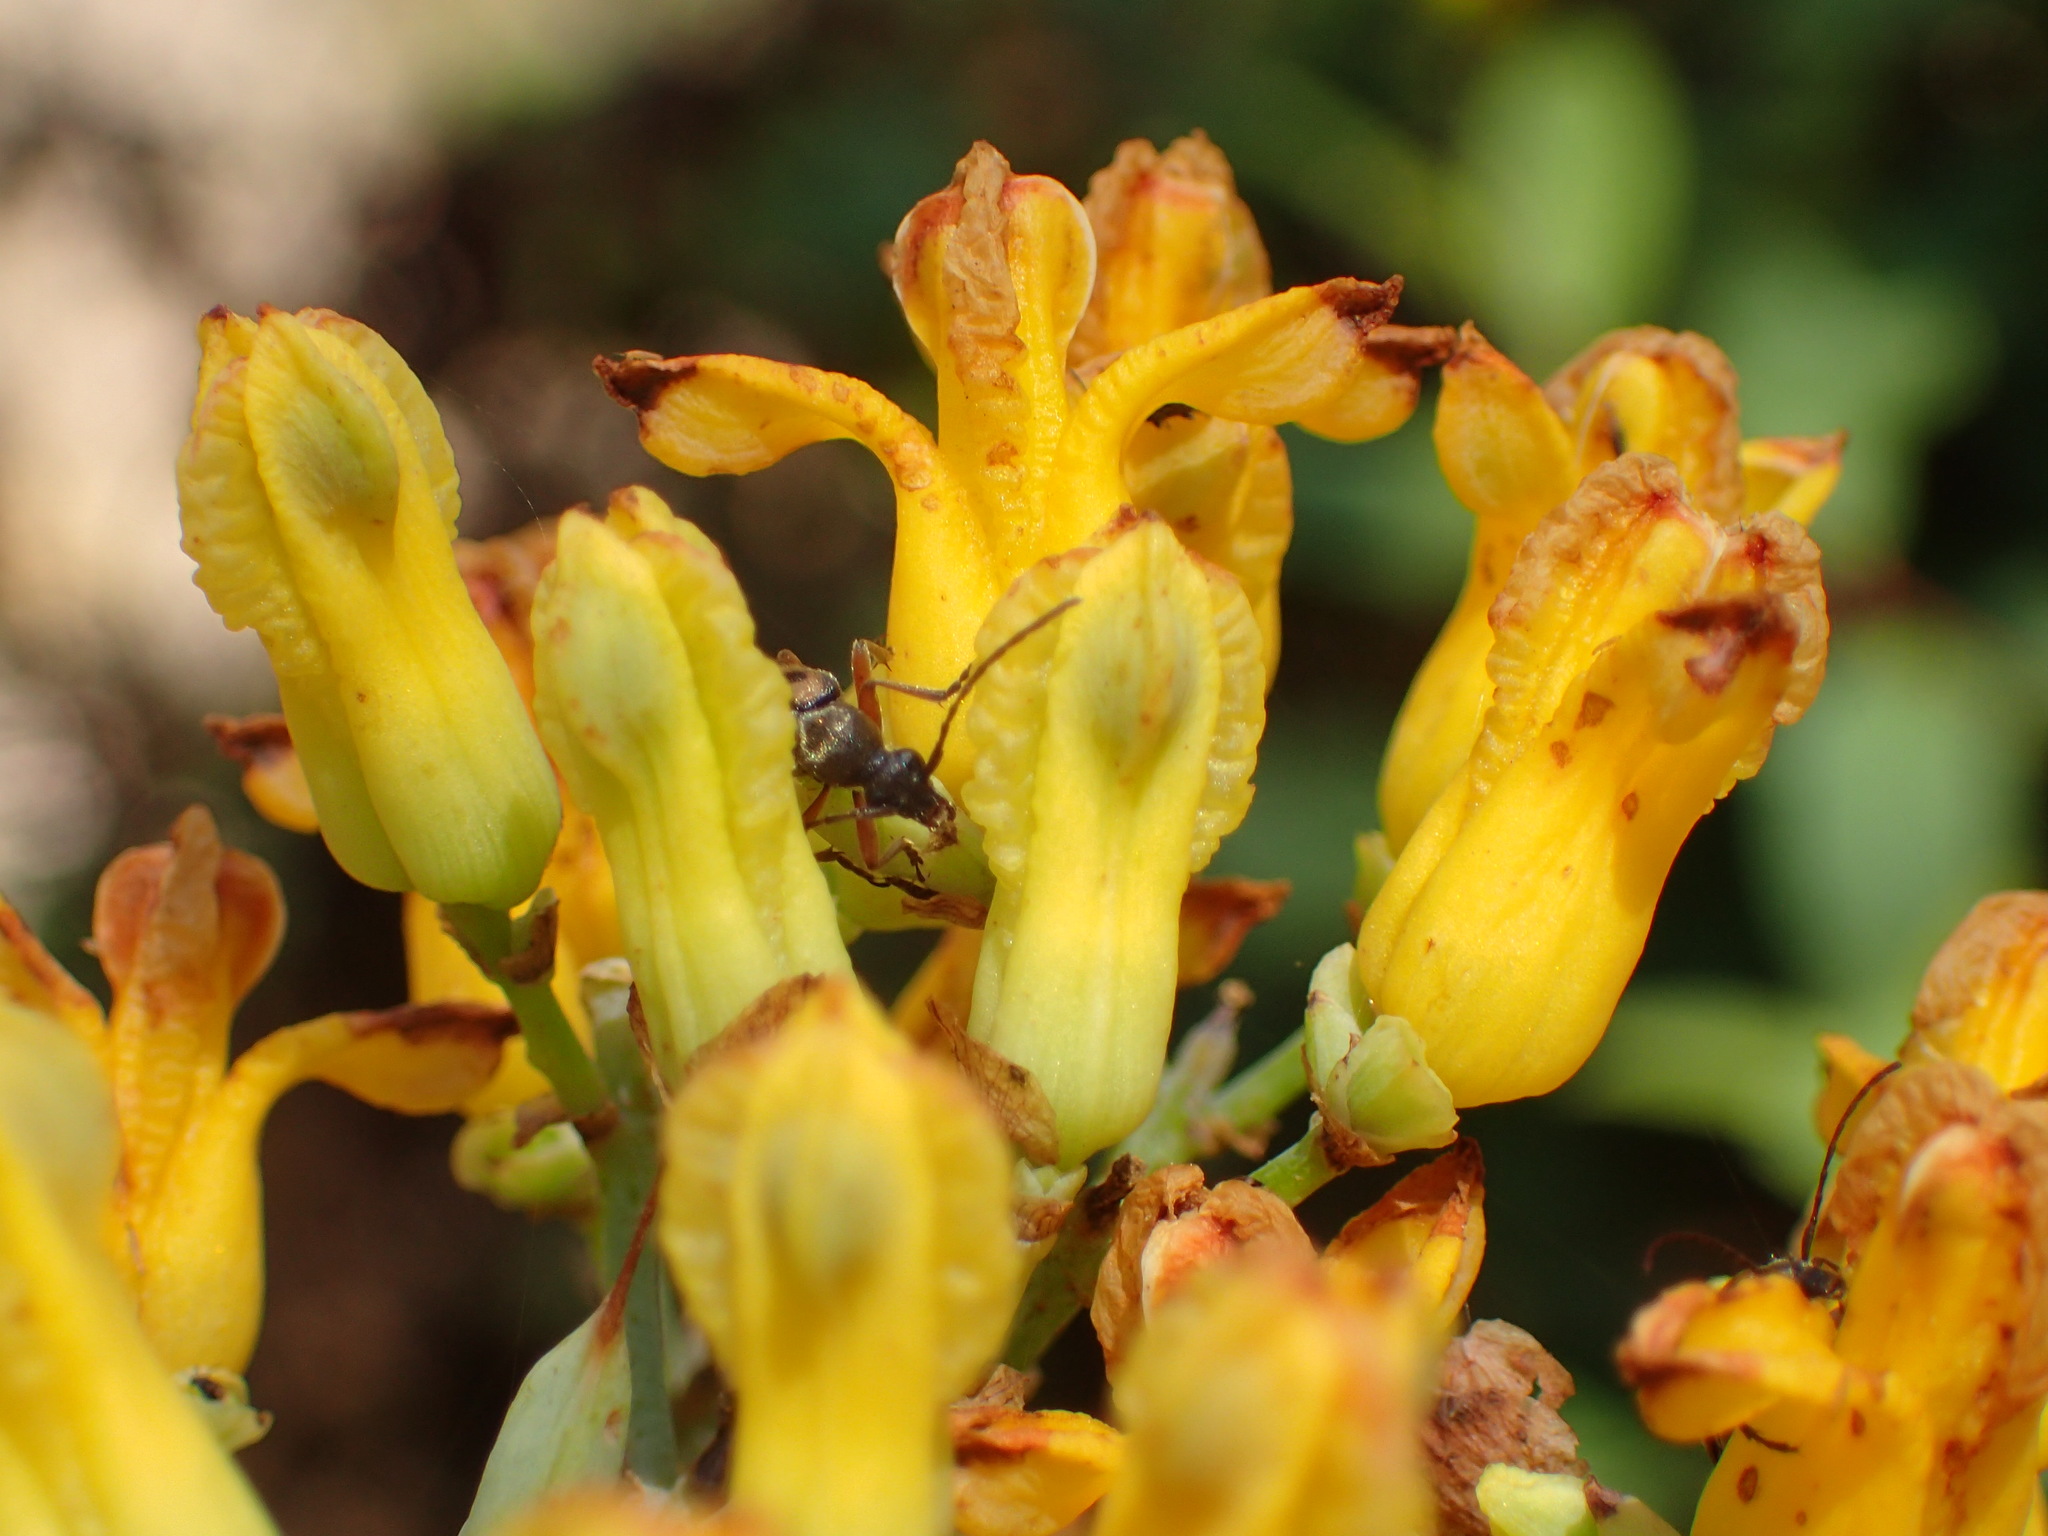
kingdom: Plantae
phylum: Tracheophyta
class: Magnoliopsida
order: Ranunculales
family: Papaveraceae
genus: Ehrendorferia
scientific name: Ehrendorferia chrysantha
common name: Golden eardrops
